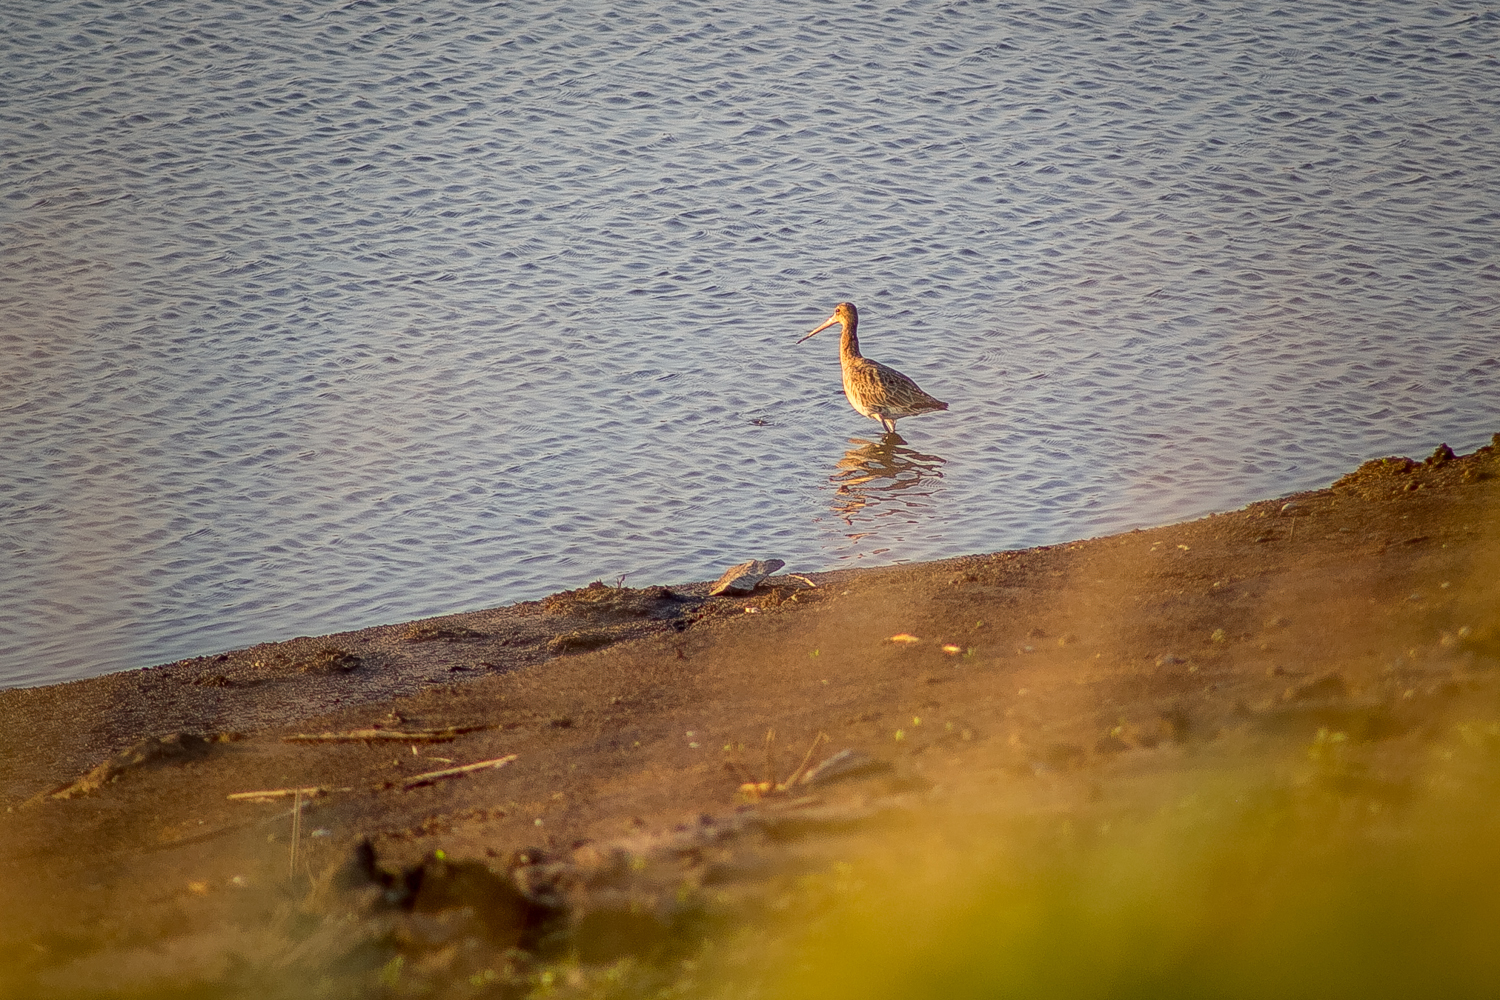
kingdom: Animalia
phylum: Chordata
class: Aves
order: Charadriiformes
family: Scolopacidae
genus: Limosa
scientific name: Limosa limosa
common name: Black-tailed godwit
